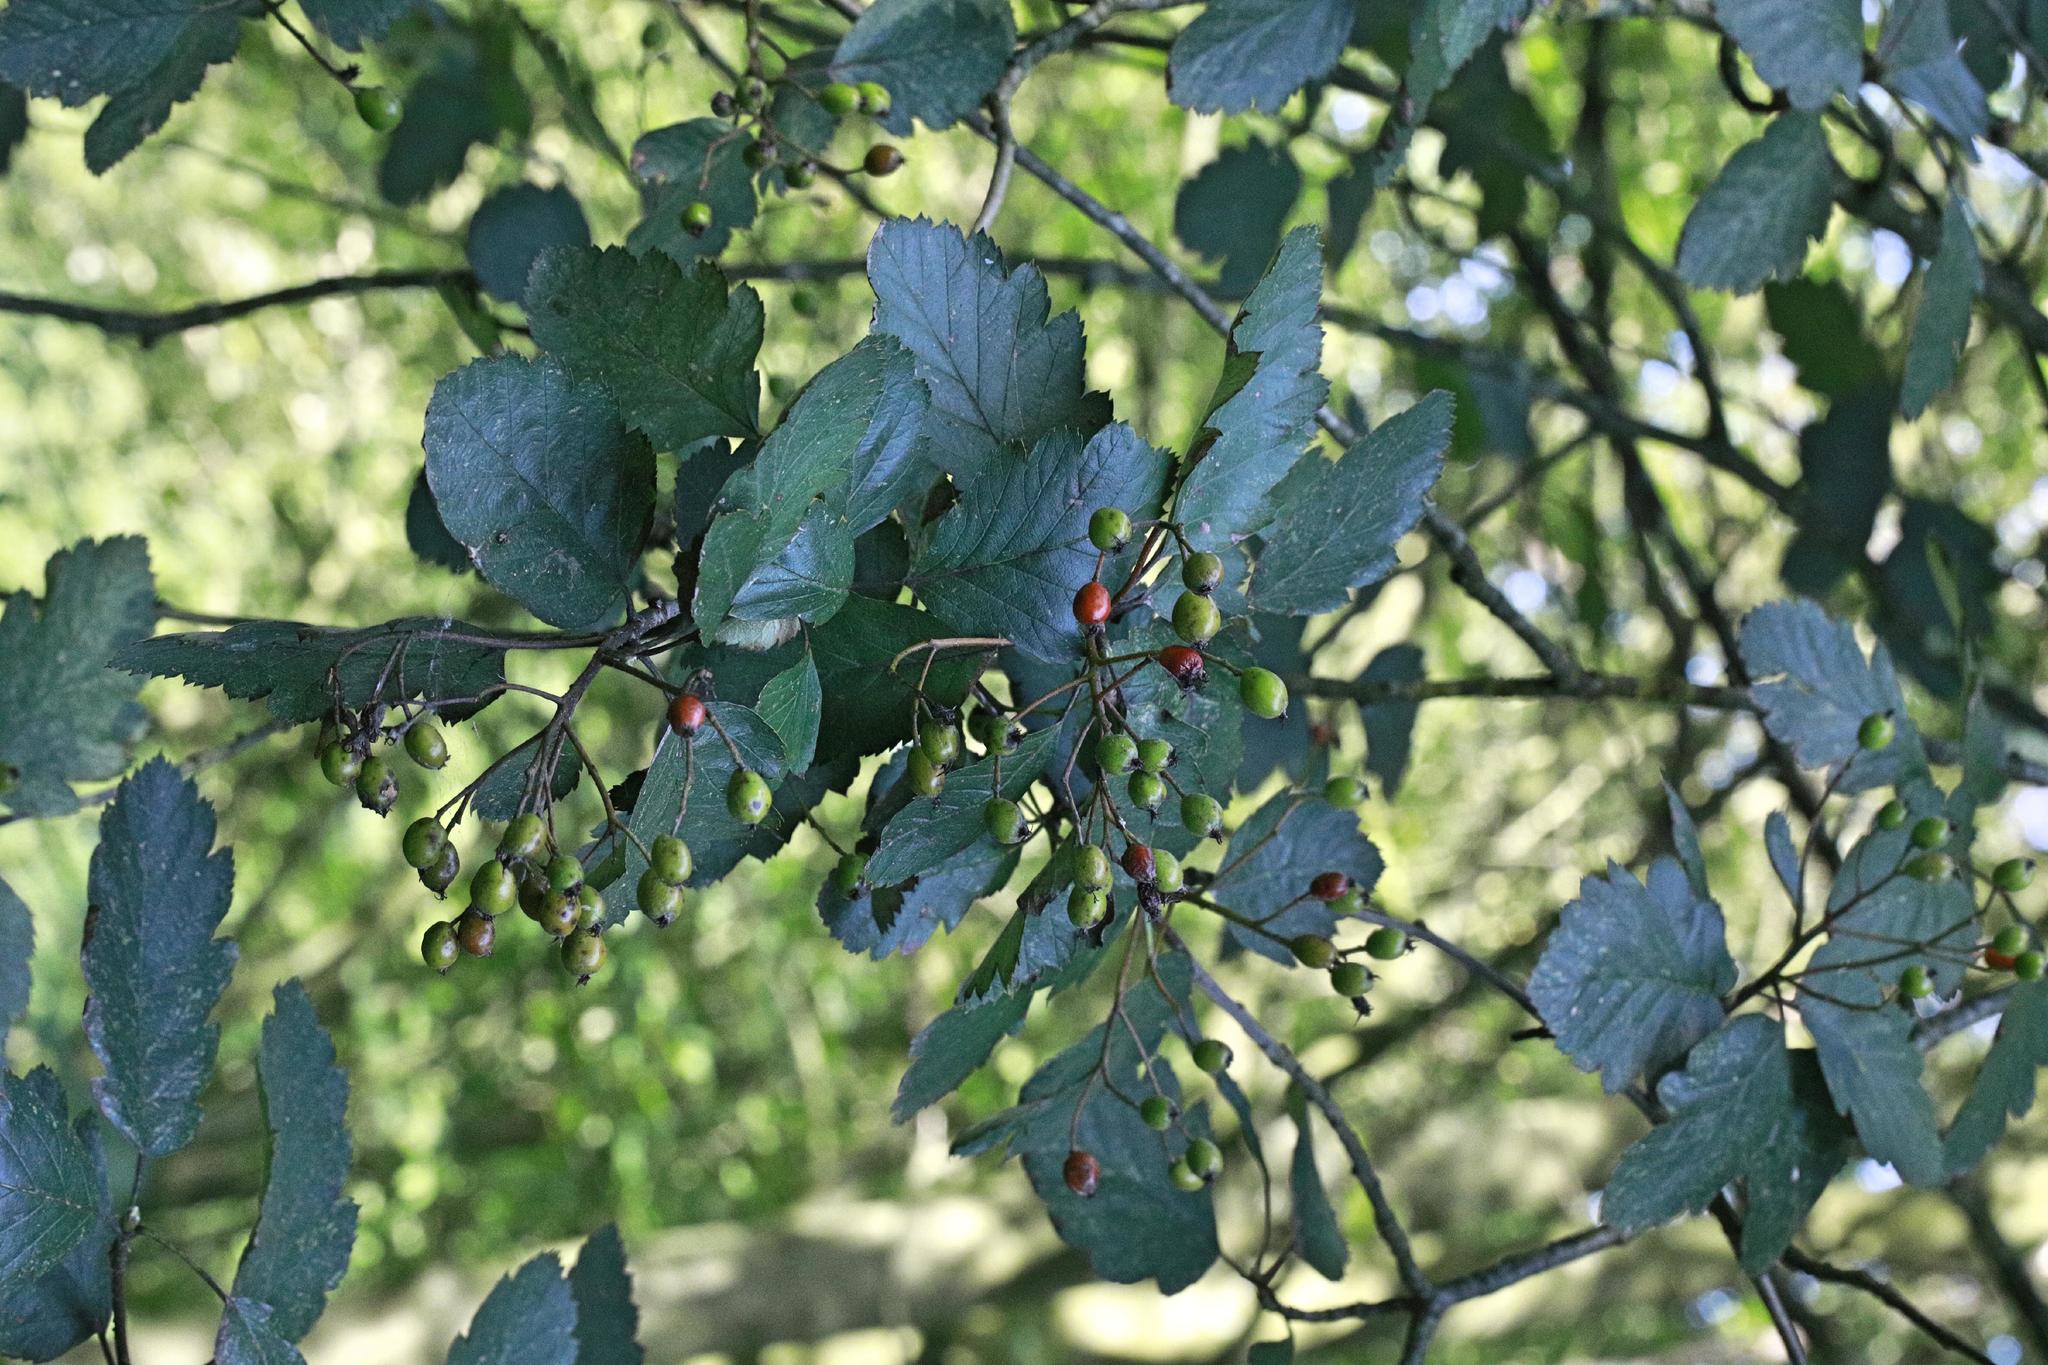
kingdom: Plantae
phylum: Tracheophyta
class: Magnoliopsida
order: Rosales
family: Rosaceae
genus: Scandosorbus
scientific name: Scandosorbus intermedia
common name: Swedish whitebeam
